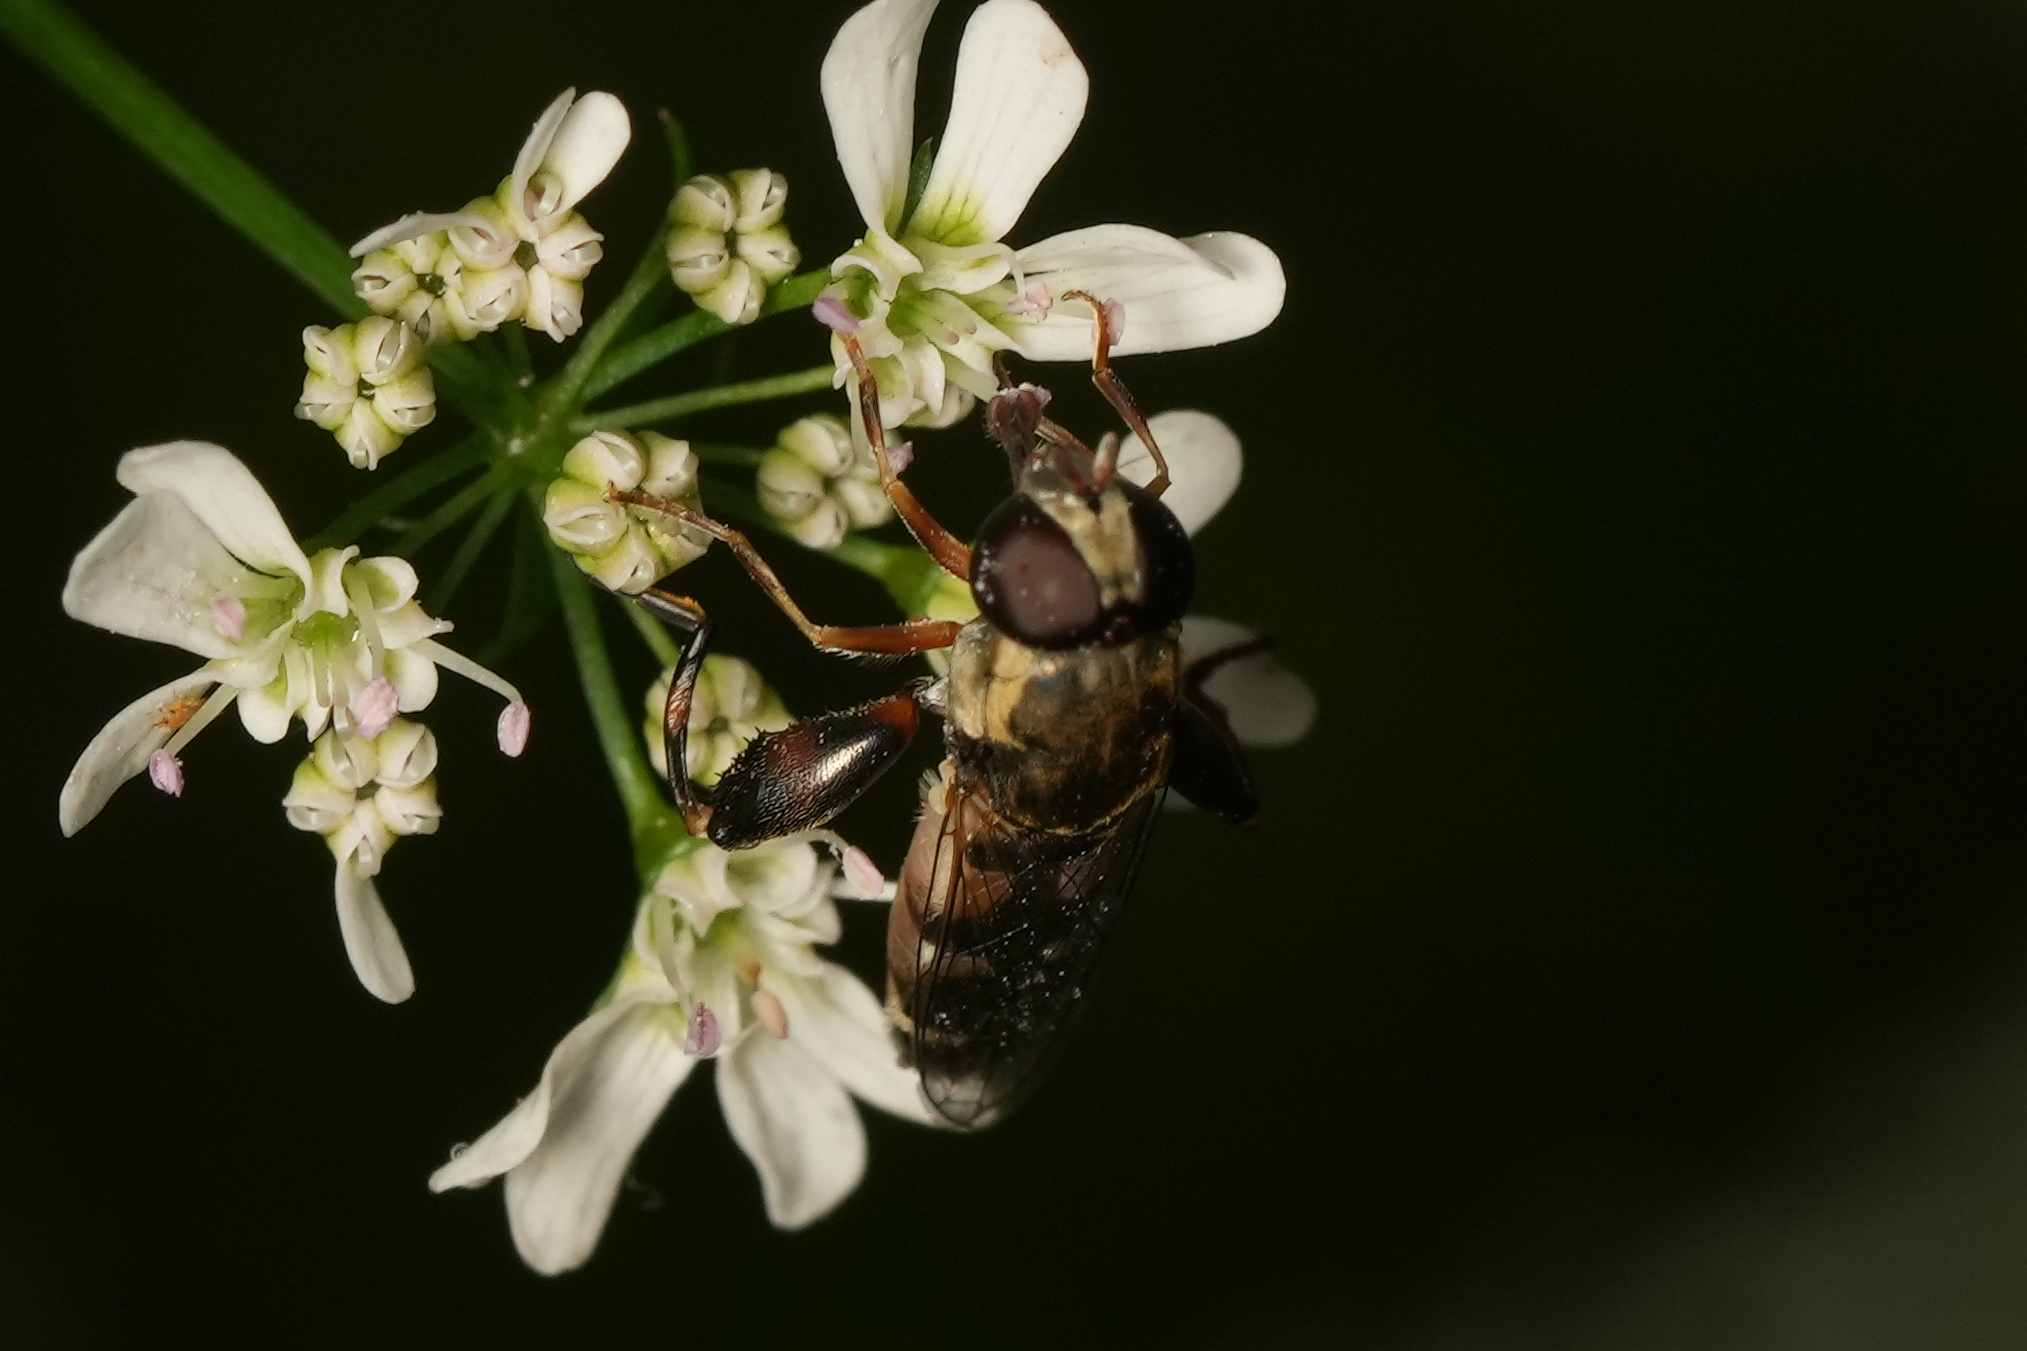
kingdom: Animalia
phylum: Arthropoda
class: Insecta
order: Diptera
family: Syrphidae
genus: Syritta
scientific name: Syritta pipiens
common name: Hover fly
